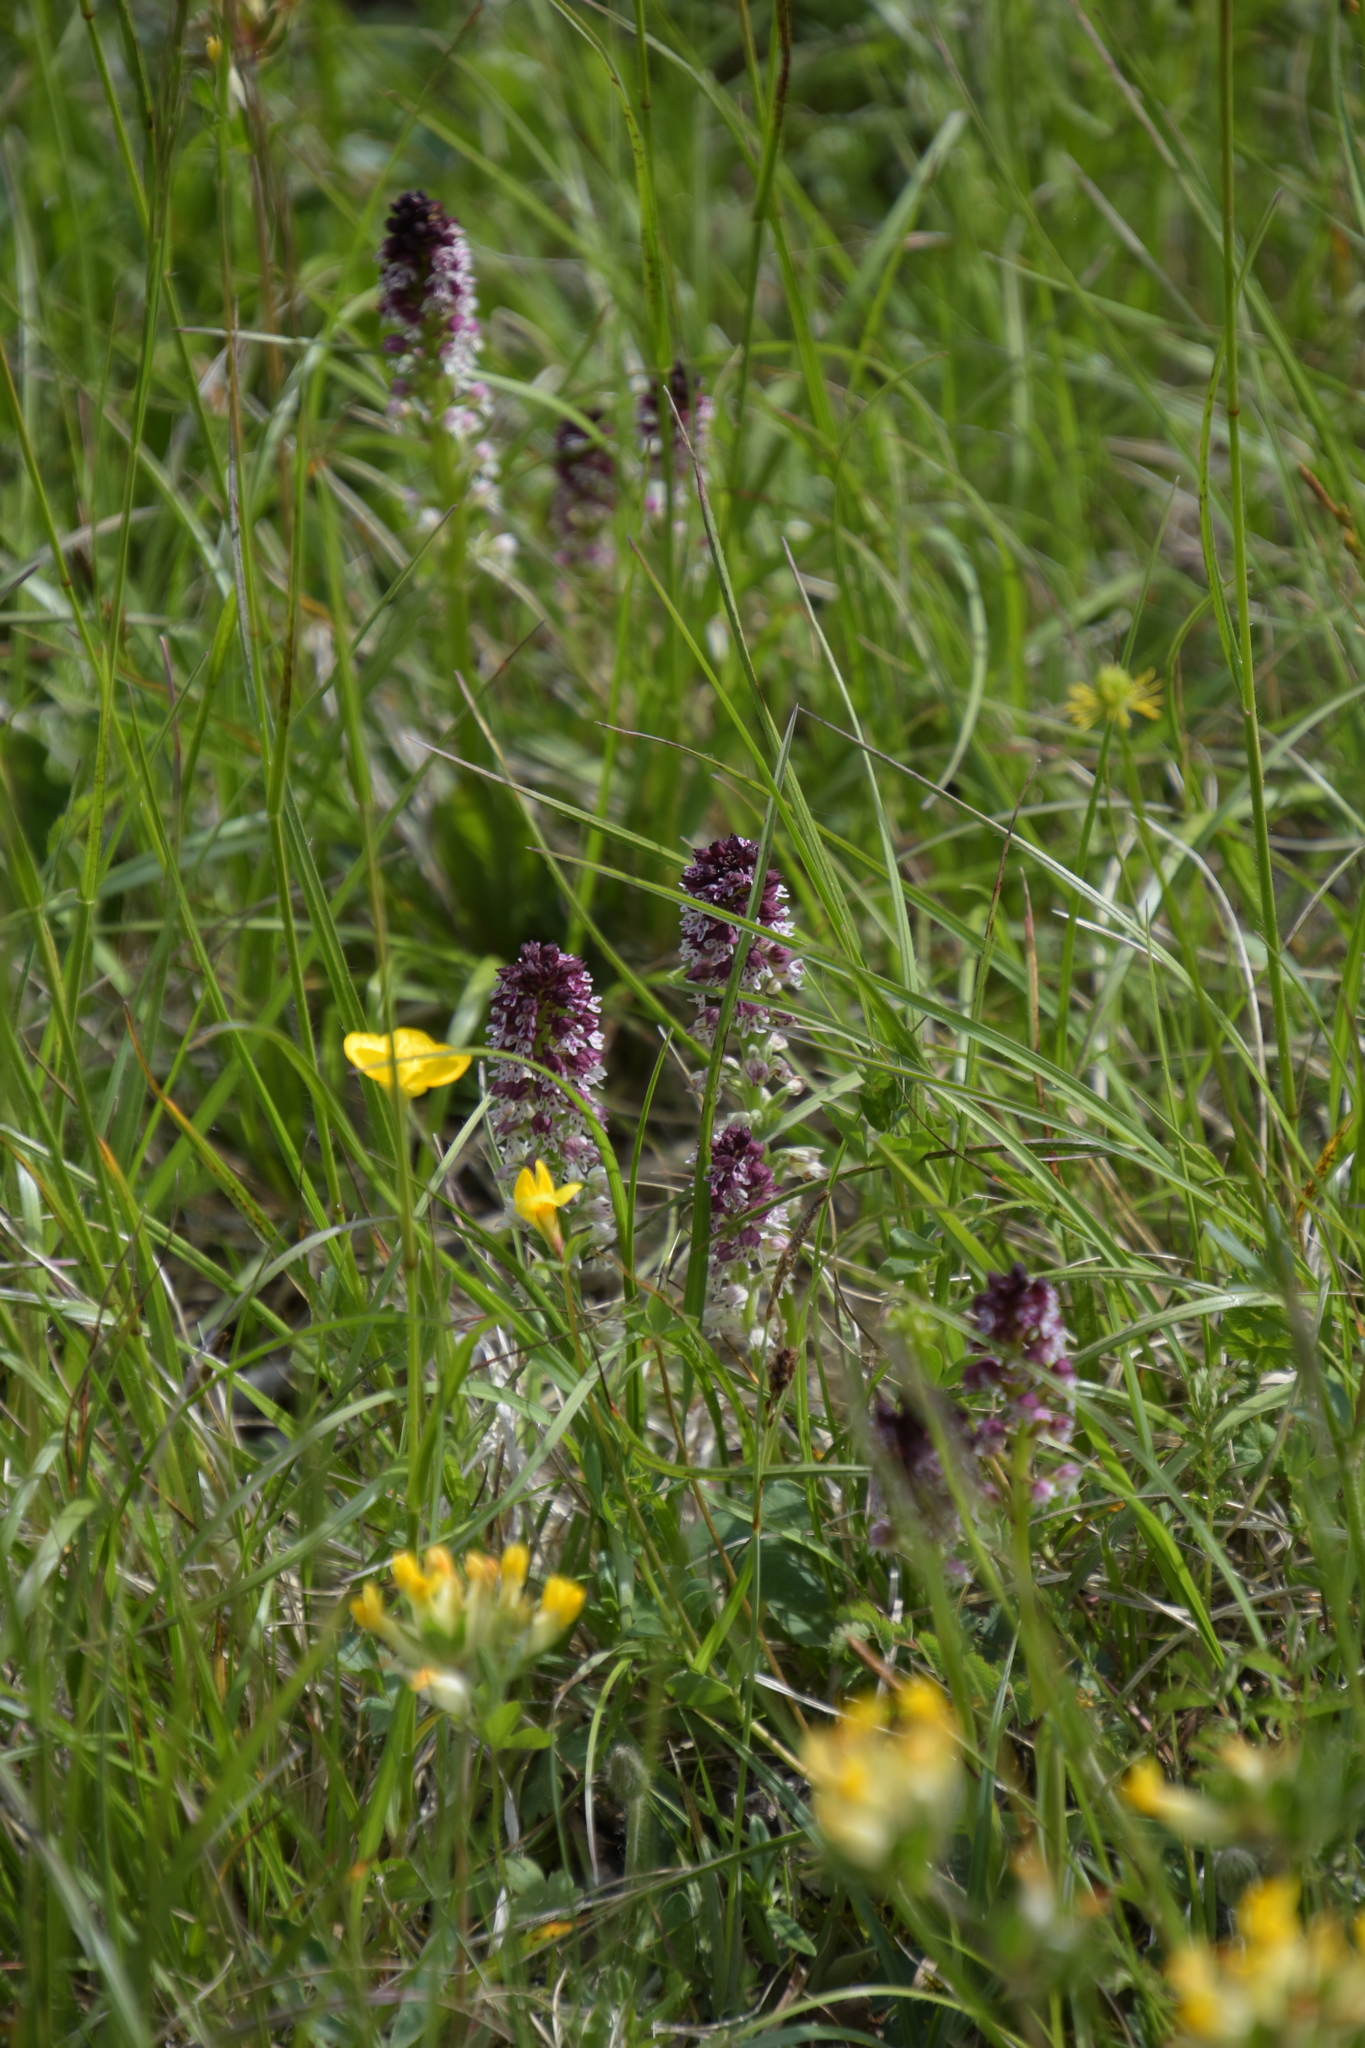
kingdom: Plantae
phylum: Tracheophyta
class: Liliopsida
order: Asparagales
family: Orchidaceae
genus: Neotinea
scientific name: Neotinea ustulata
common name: Burnt orchid
